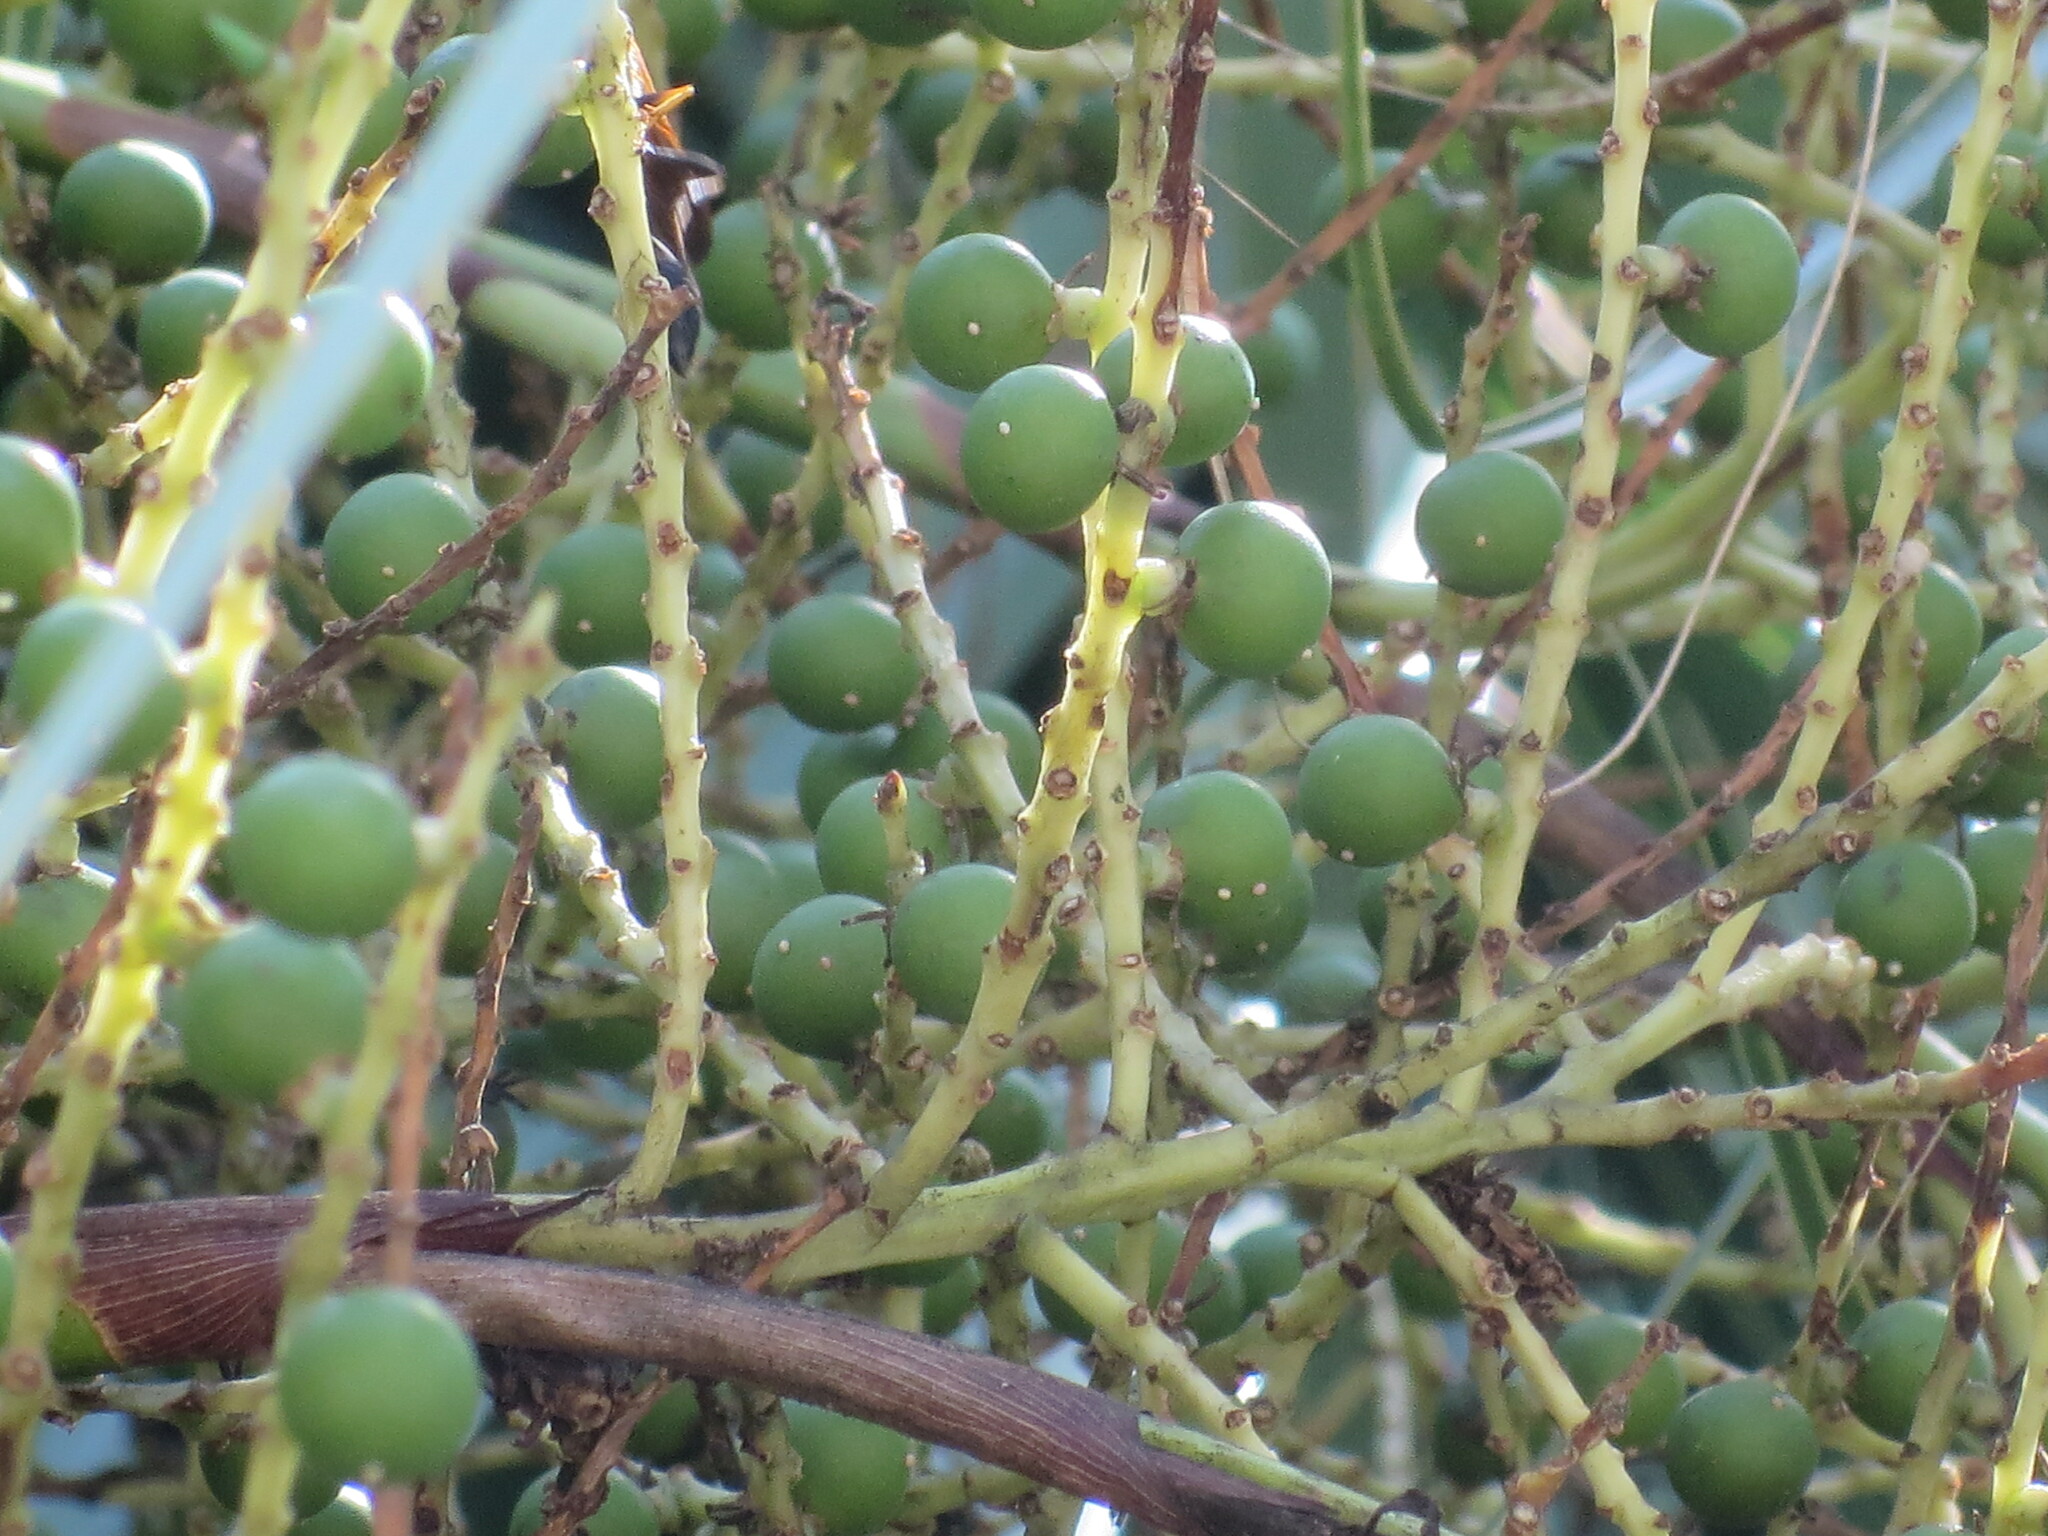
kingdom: Plantae
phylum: Tracheophyta
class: Liliopsida
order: Arecales
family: Arecaceae
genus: Sabal
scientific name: Sabal palmetto
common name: Blue palmetto
